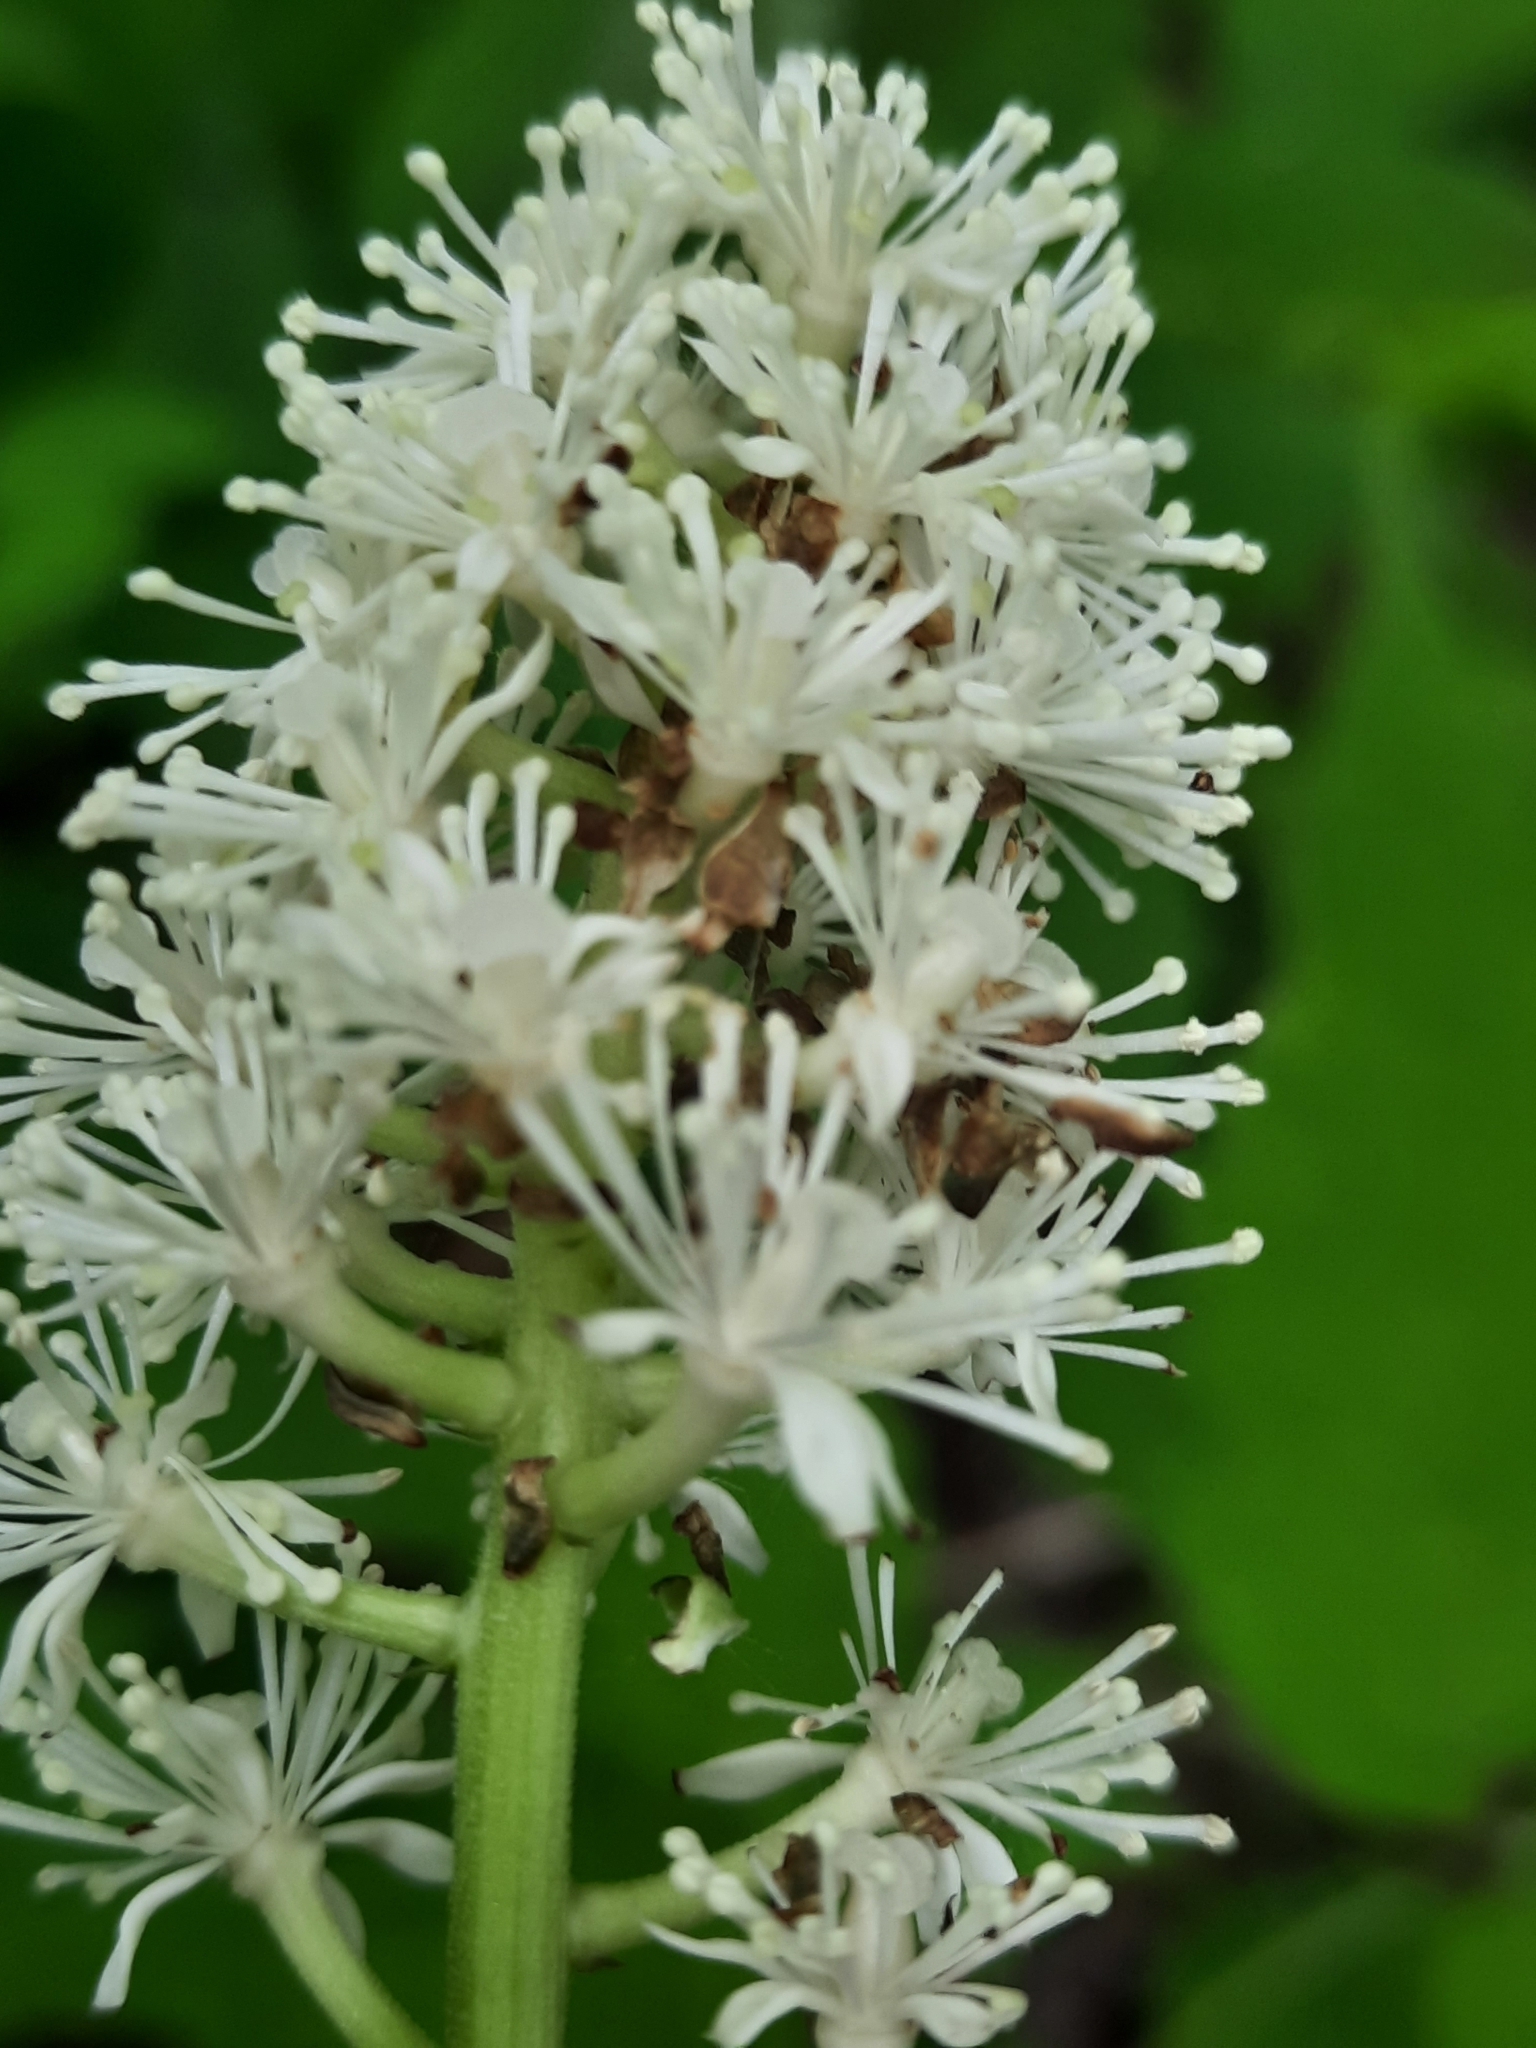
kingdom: Plantae
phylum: Tracheophyta
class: Magnoliopsida
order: Ranunculales
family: Ranunculaceae
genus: Actaea
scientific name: Actaea pachypoda
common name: Doll's-eyes
